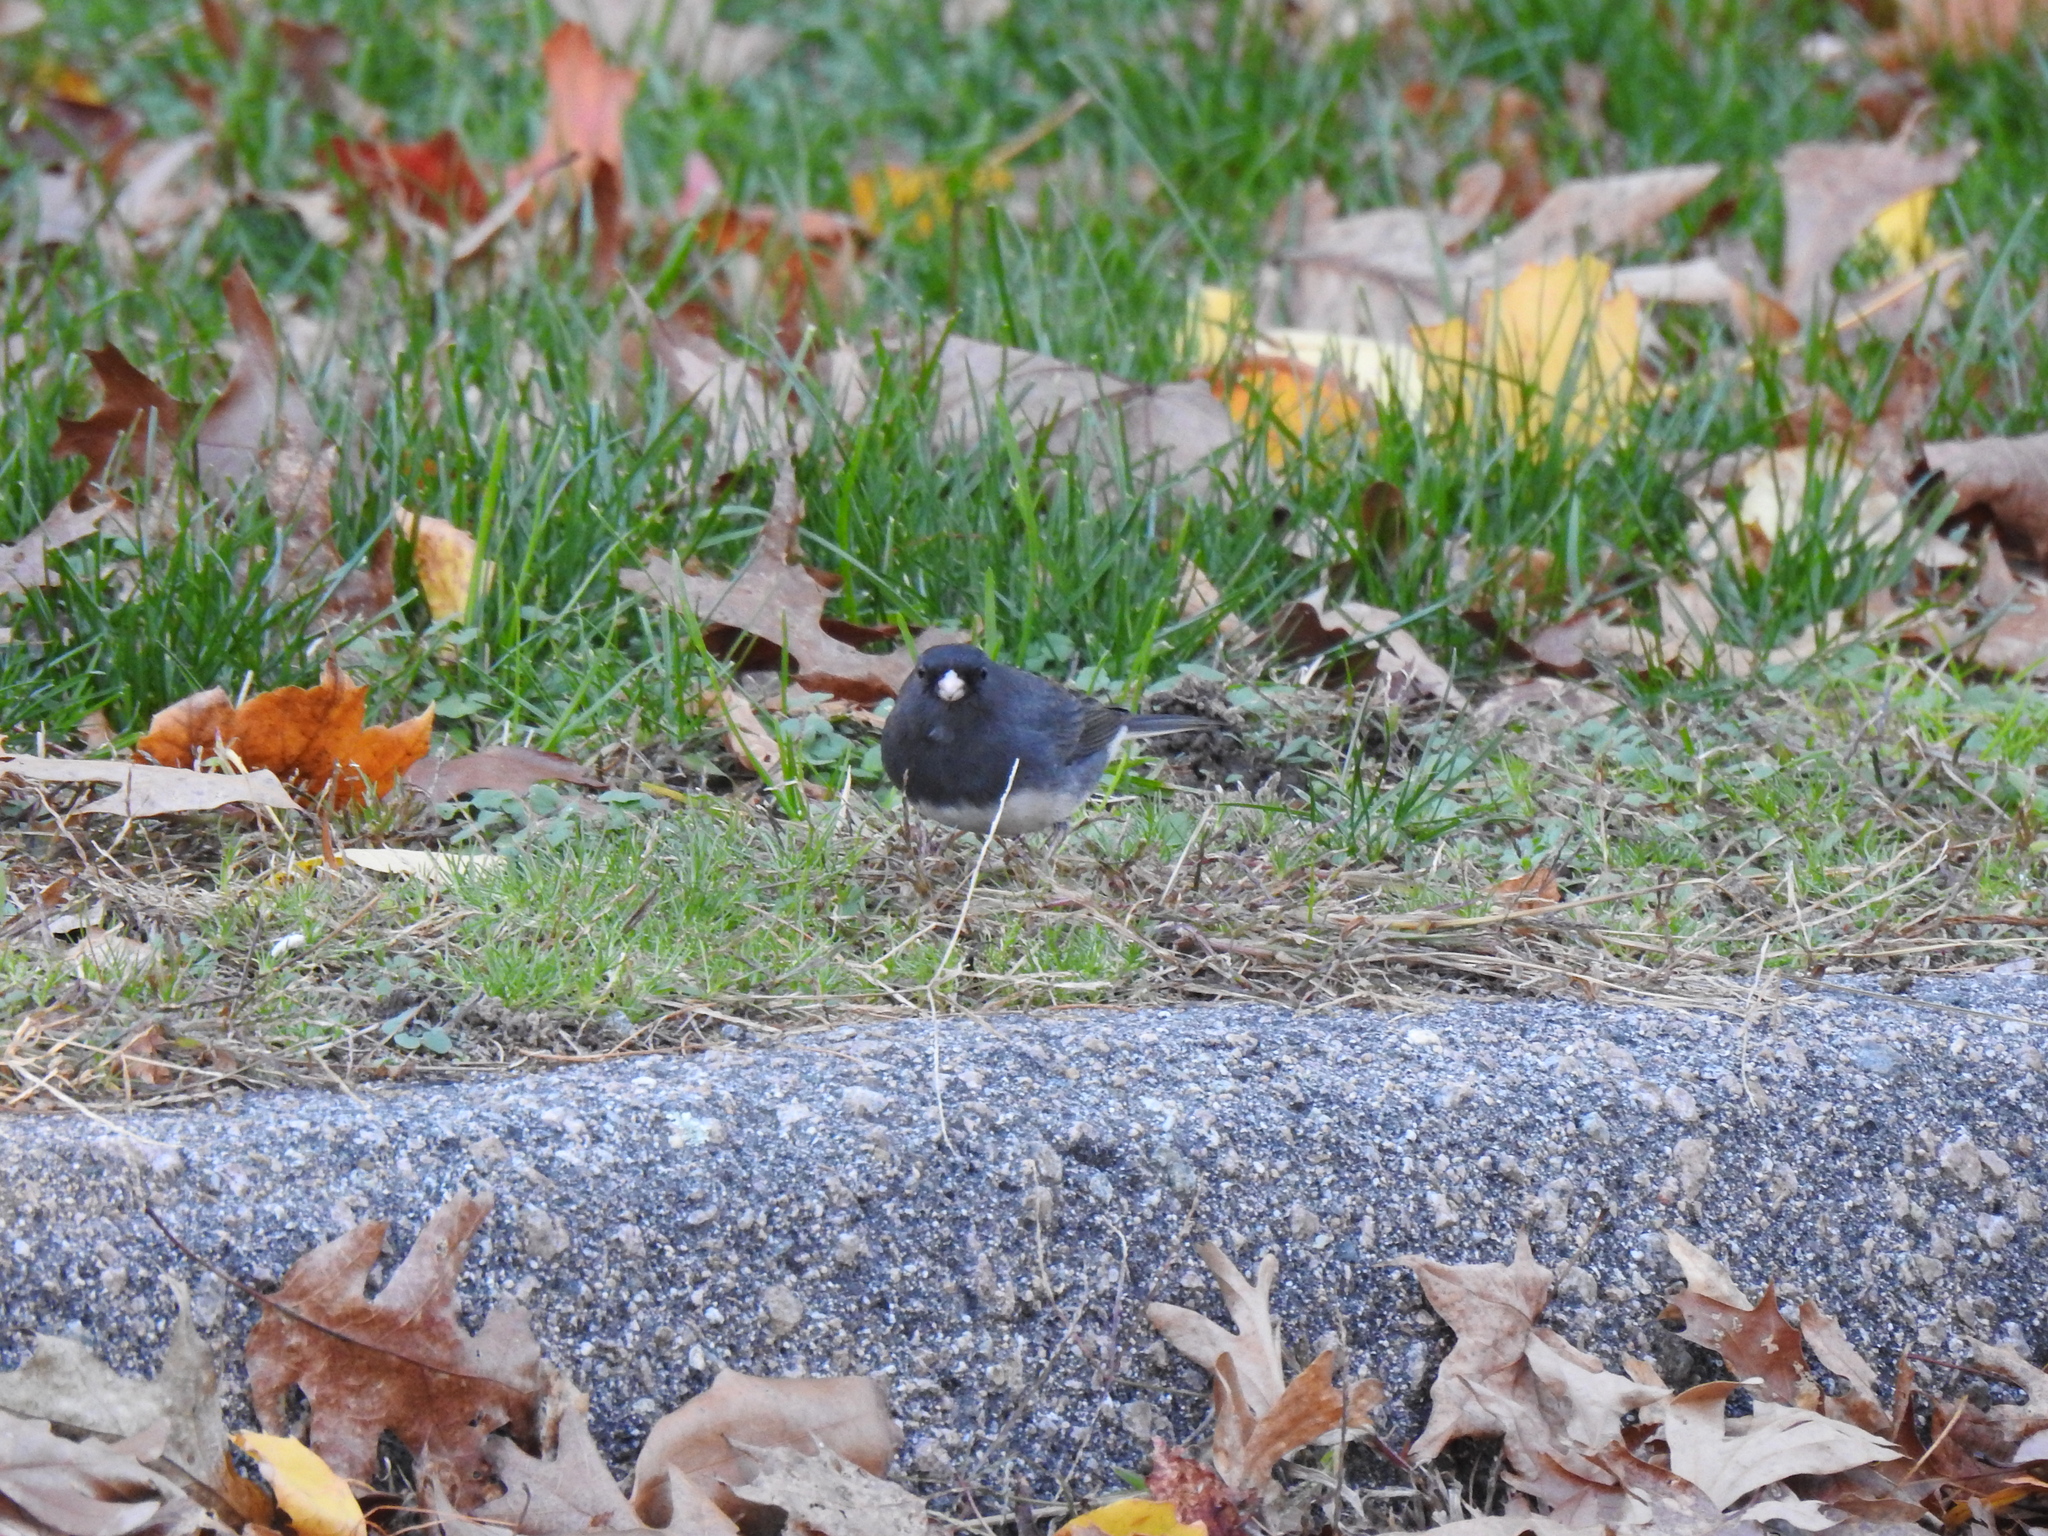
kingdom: Animalia
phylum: Chordata
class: Aves
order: Passeriformes
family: Passerellidae
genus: Junco
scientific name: Junco hyemalis
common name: Dark-eyed junco
